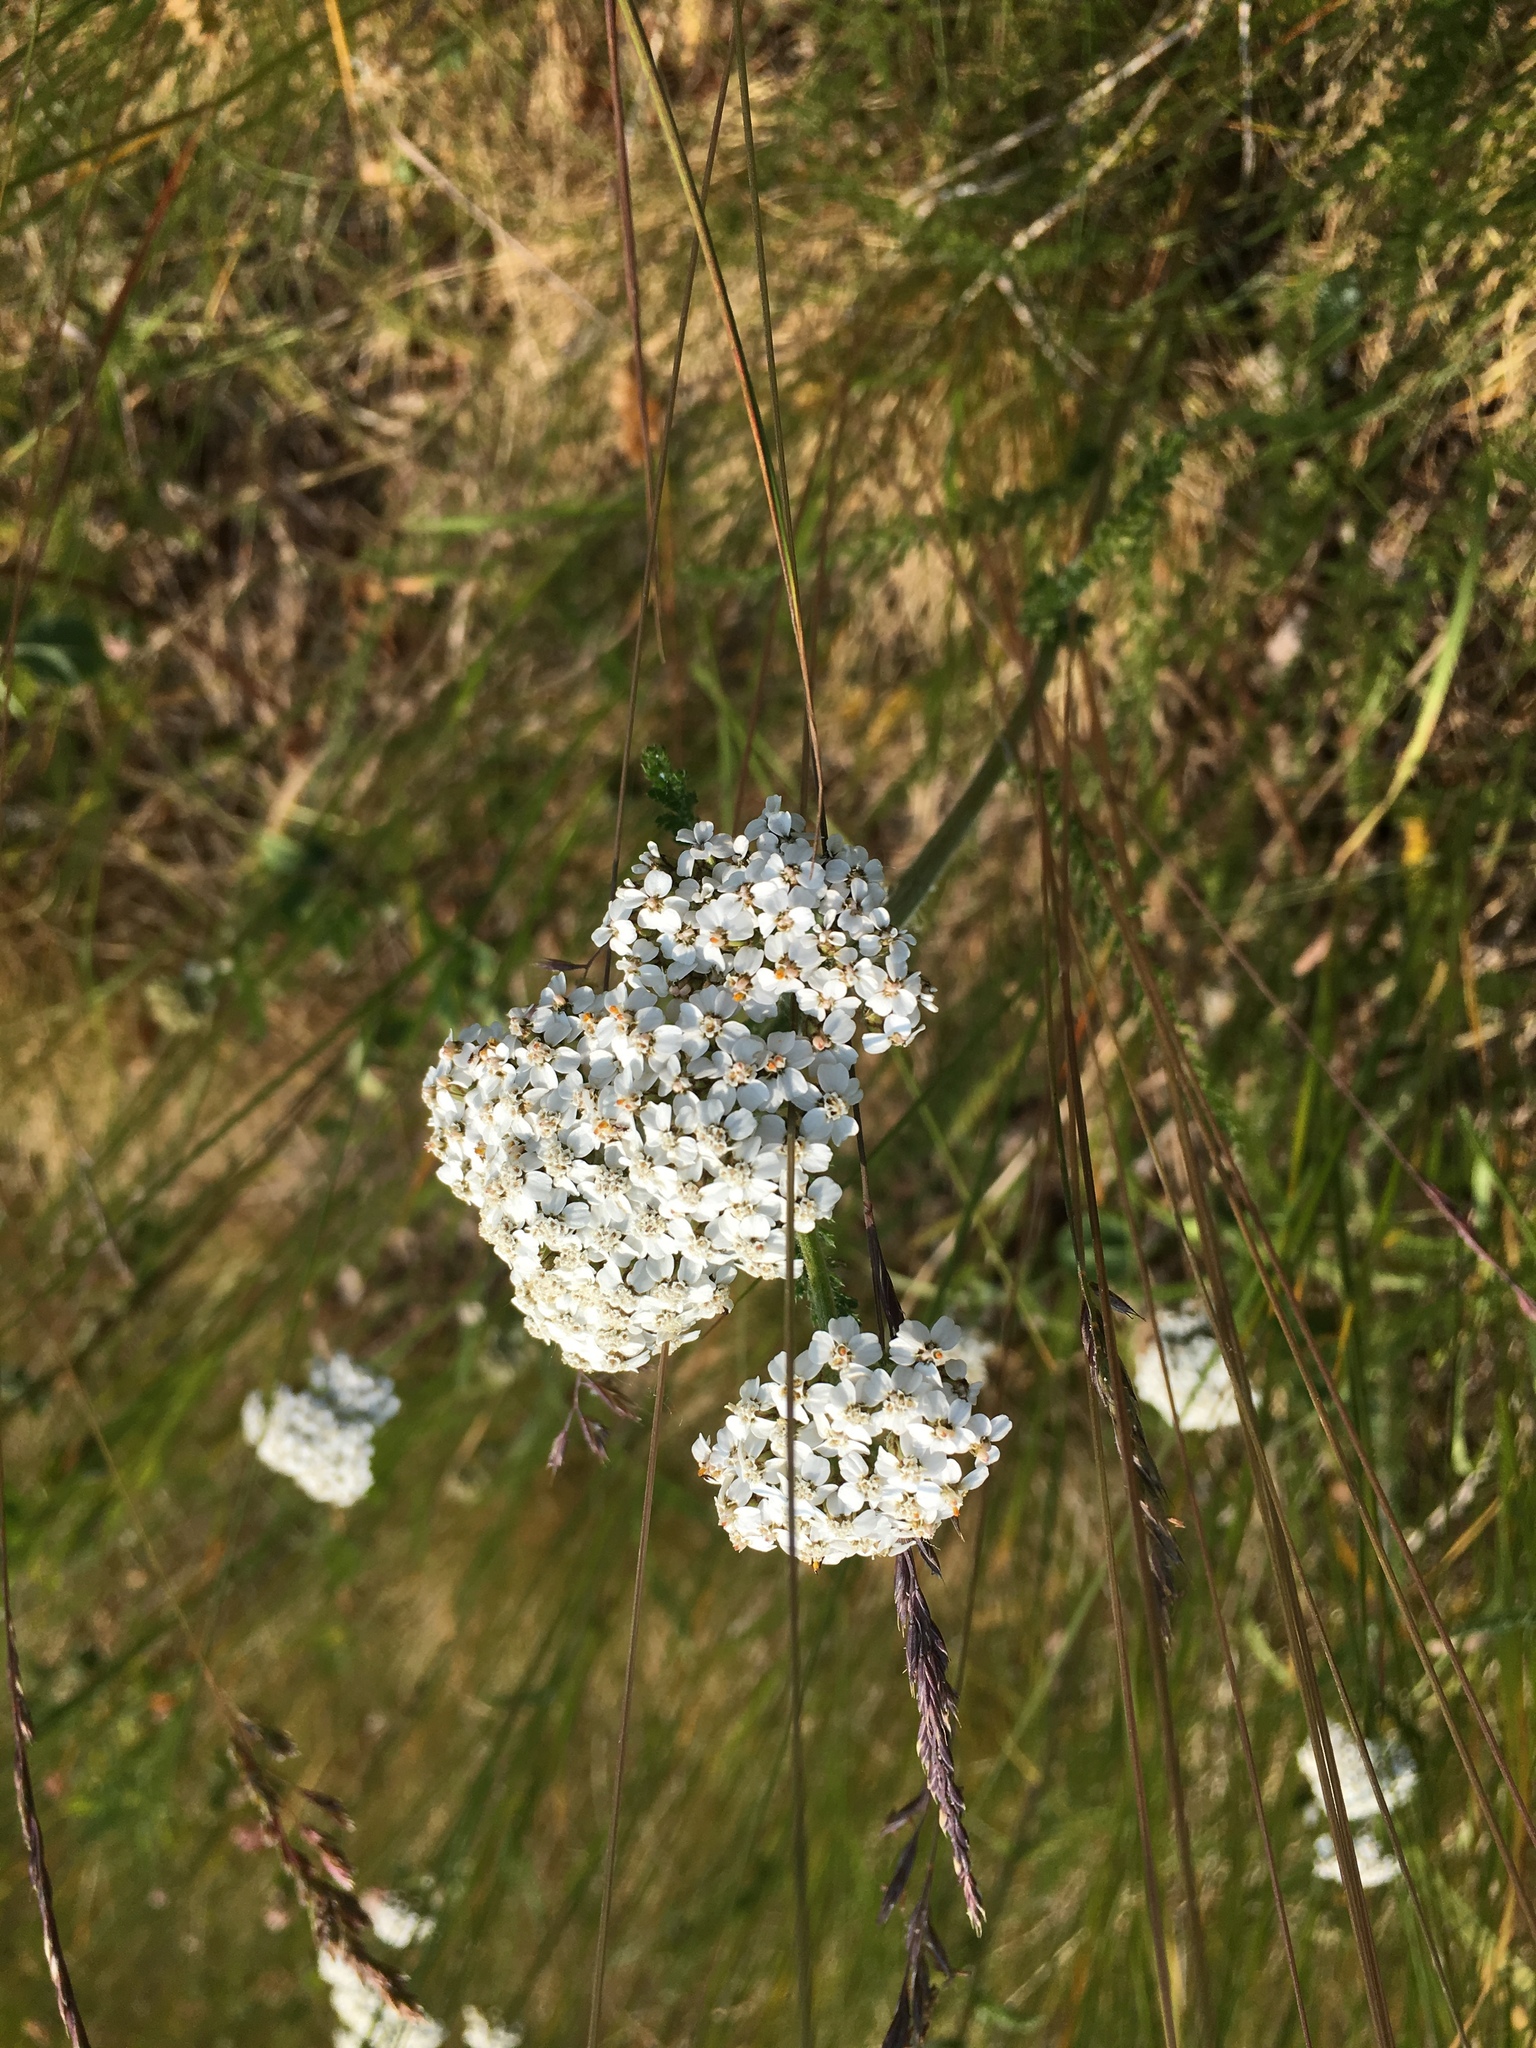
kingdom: Plantae
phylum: Tracheophyta
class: Magnoliopsida
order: Asterales
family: Asteraceae
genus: Achillea
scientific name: Achillea millefolium
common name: Yarrow
